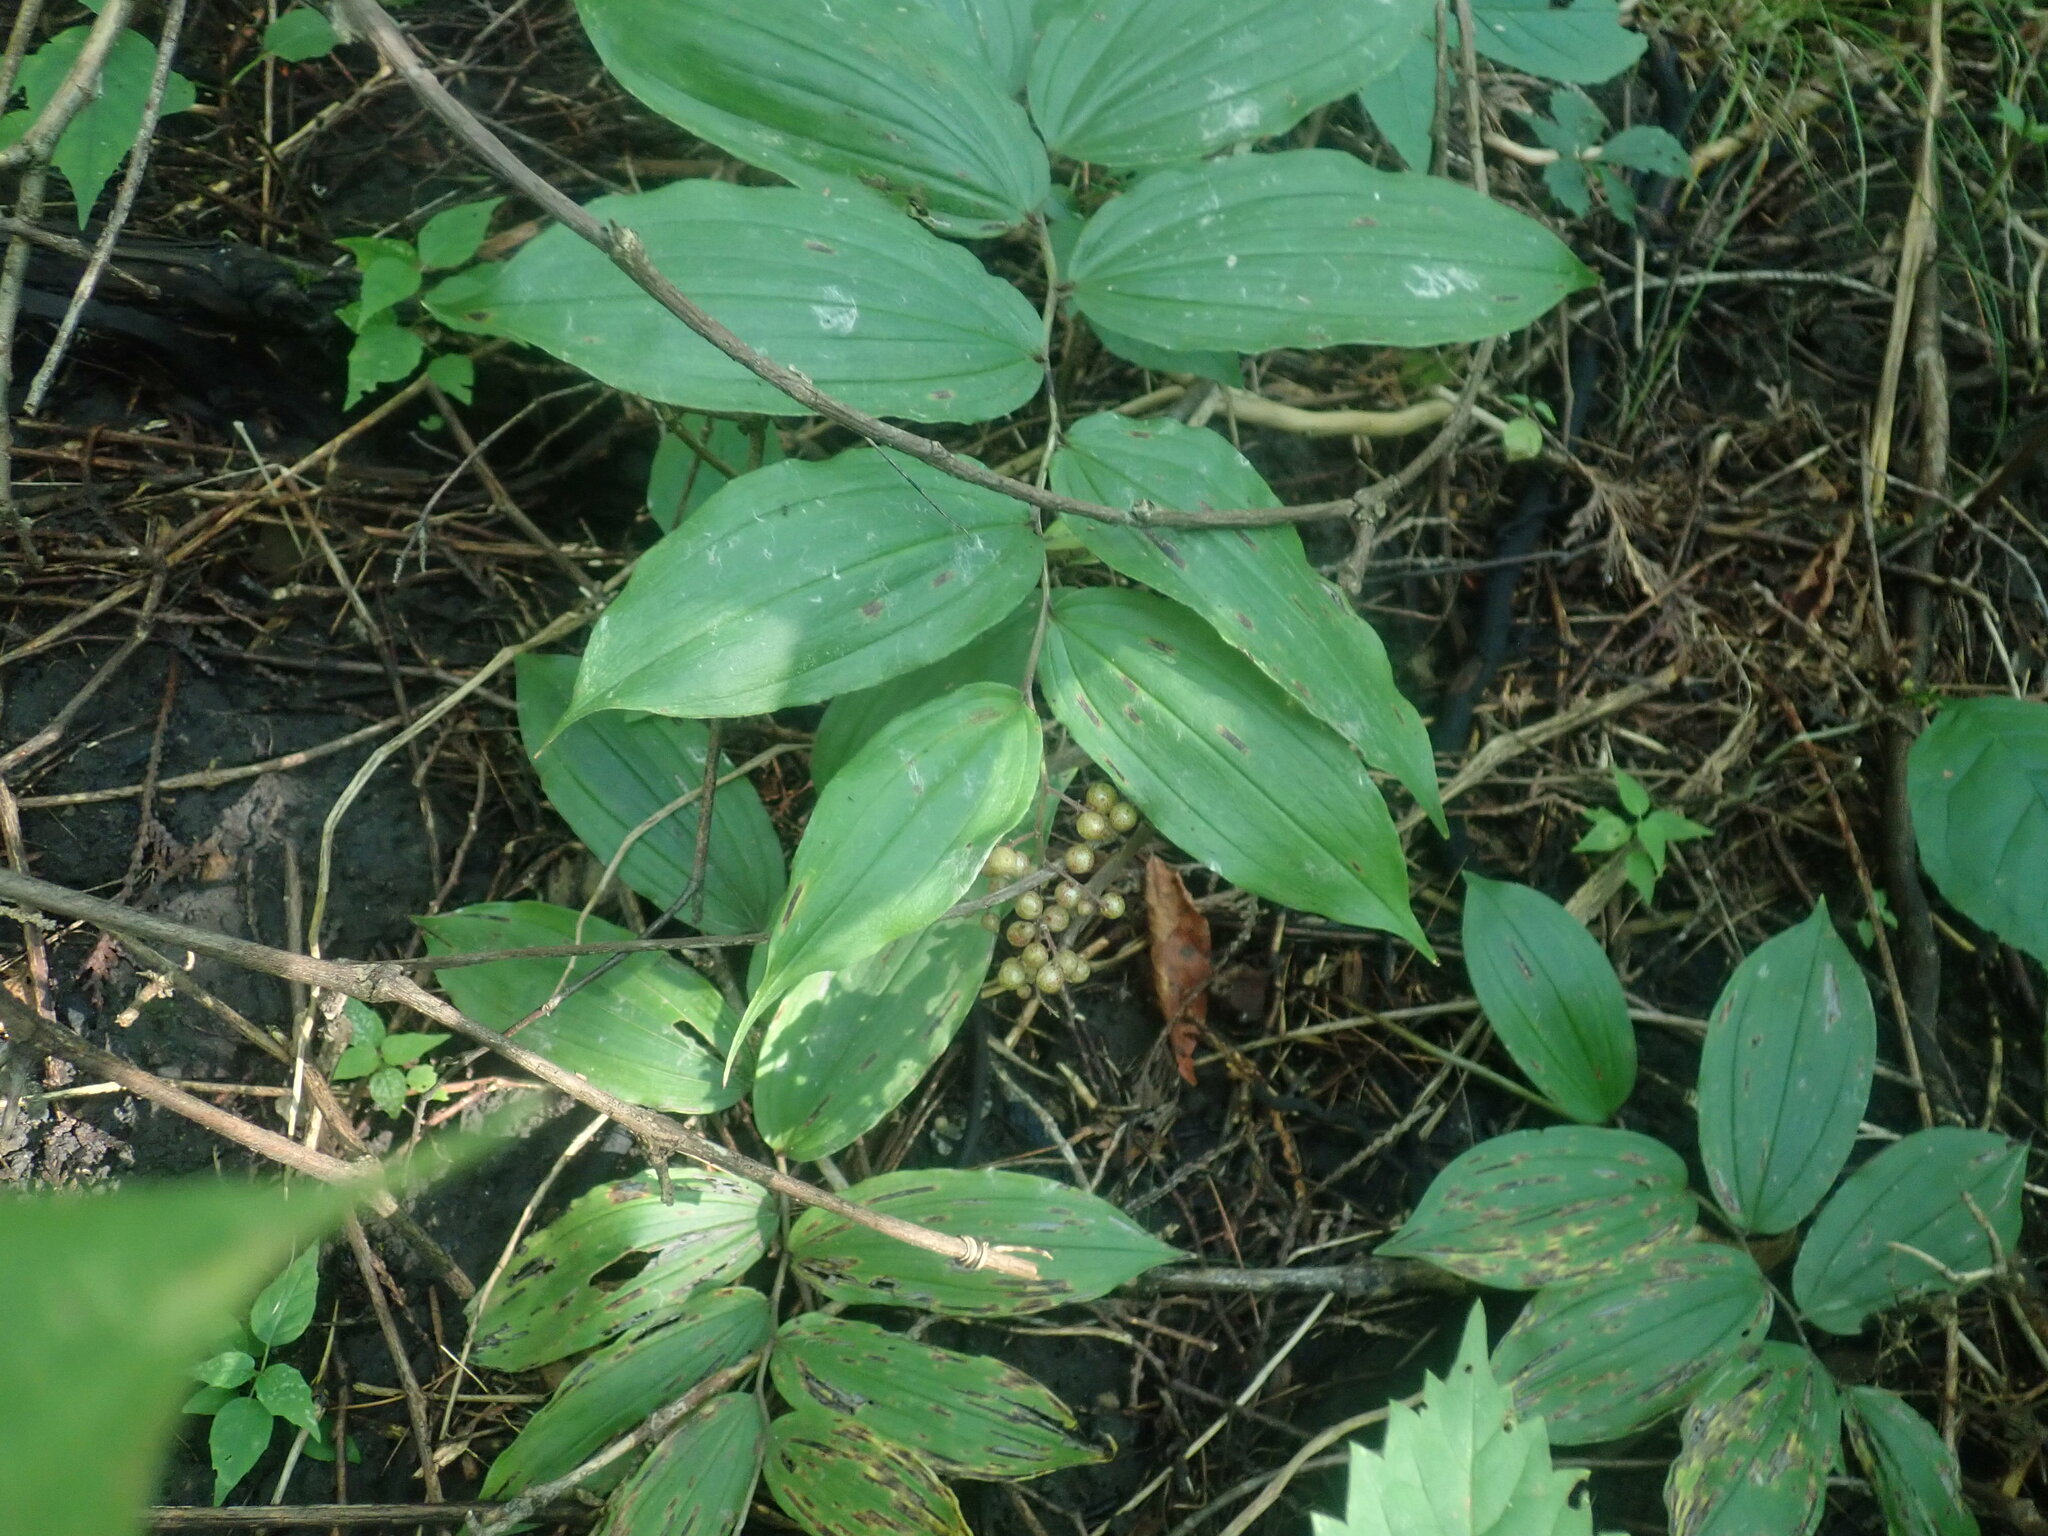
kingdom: Plantae
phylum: Tracheophyta
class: Liliopsida
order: Asparagales
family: Asparagaceae
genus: Maianthemum
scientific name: Maianthemum racemosum
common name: False spikenard
